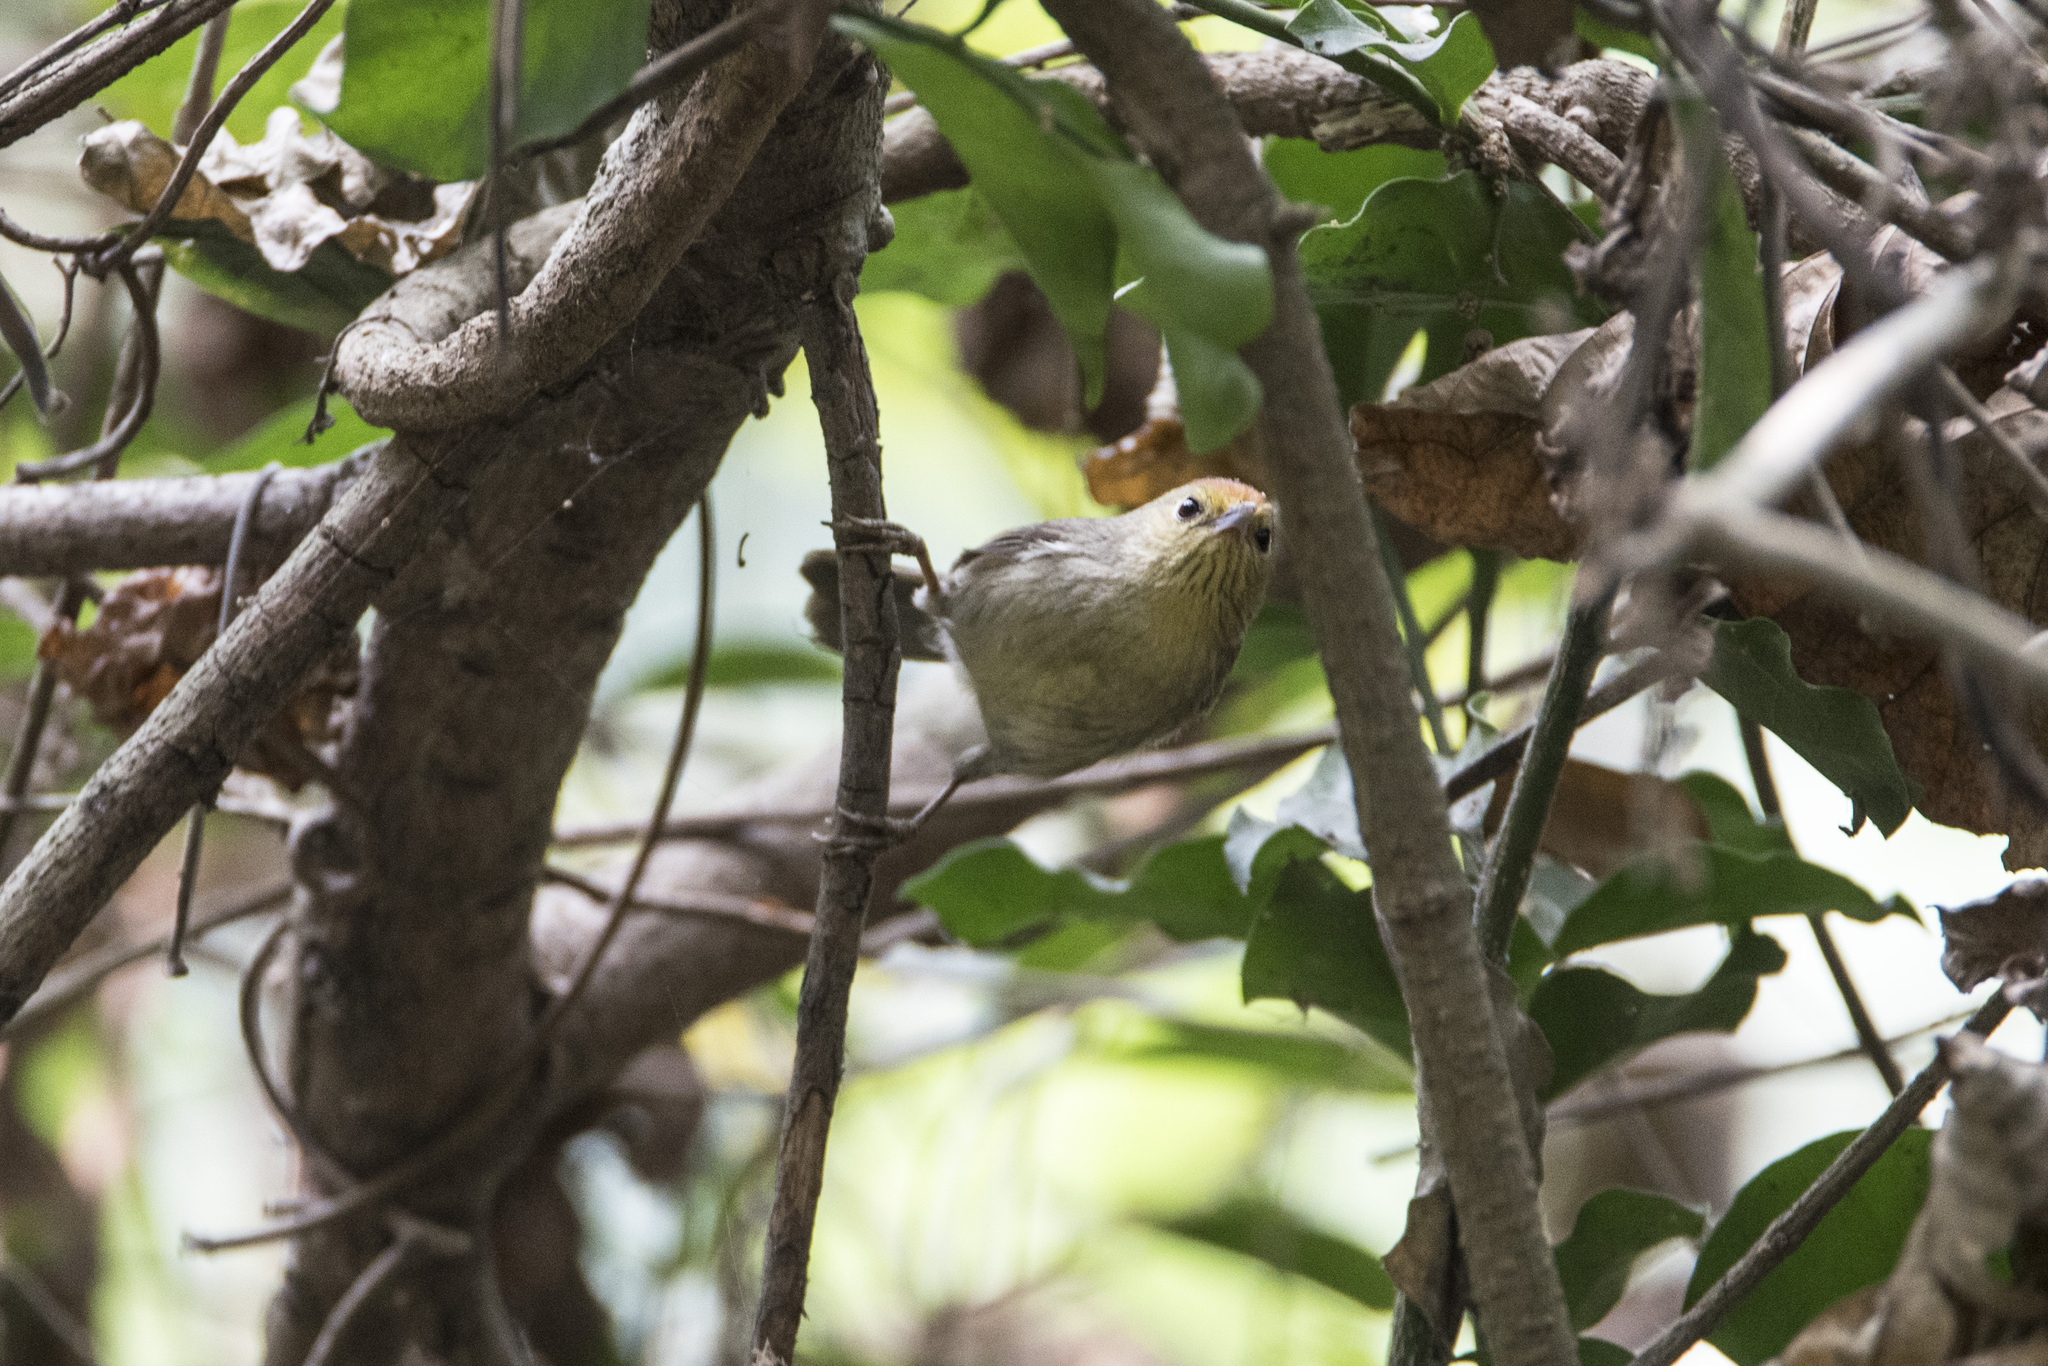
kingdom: Animalia
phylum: Chordata
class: Aves
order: Passeriformes
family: Timaliidae
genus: Stachyridopsis
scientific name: Stachyridopsis ruficeps
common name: Rufous-capped babbler
